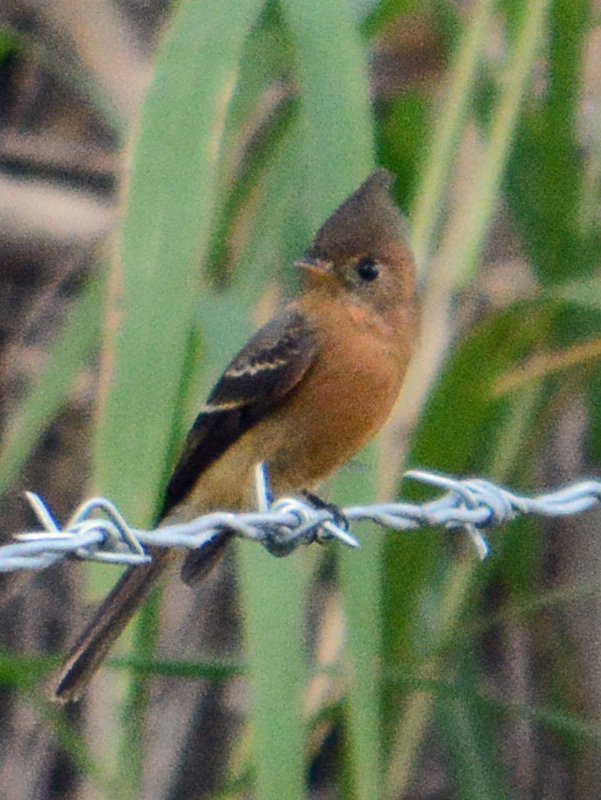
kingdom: Animalia
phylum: Chordata
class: Aves
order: Passeriformes
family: Tyrannidae
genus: Mitrephanes
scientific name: Mitrephanes phaeocercus
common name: Northern tufted flycatcher
